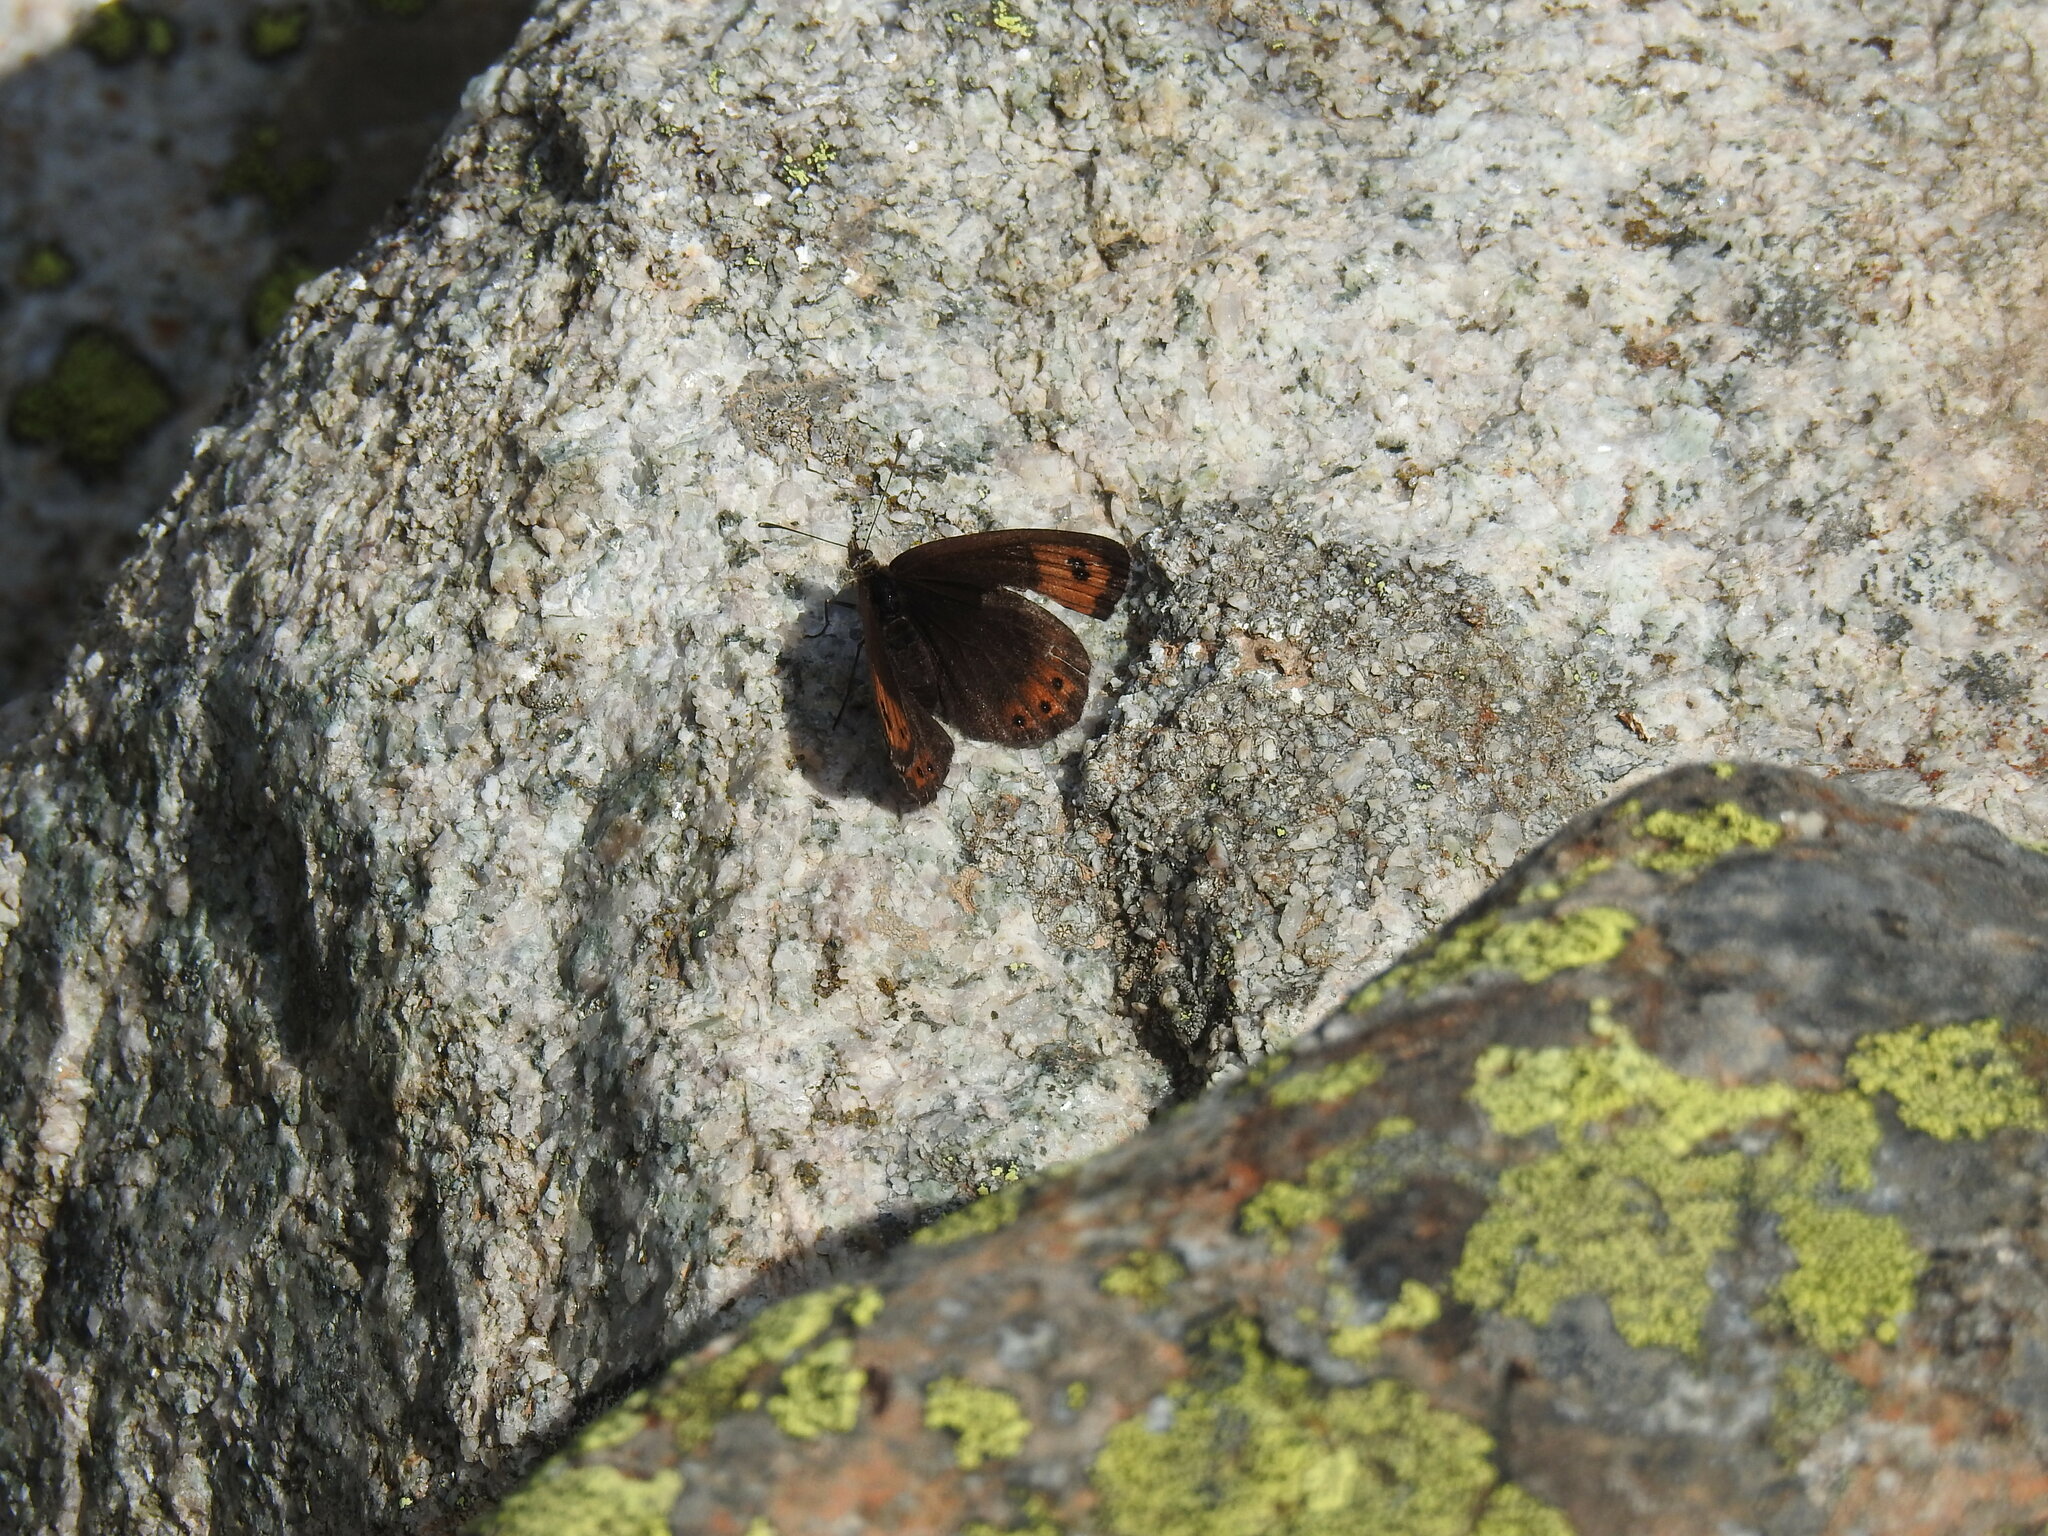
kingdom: Animalia
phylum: Arthropoda
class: Insecta
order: Lepidoptera
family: Nymphalidae
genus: Erebia
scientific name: Erebia montanus
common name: Marbled ringlet
